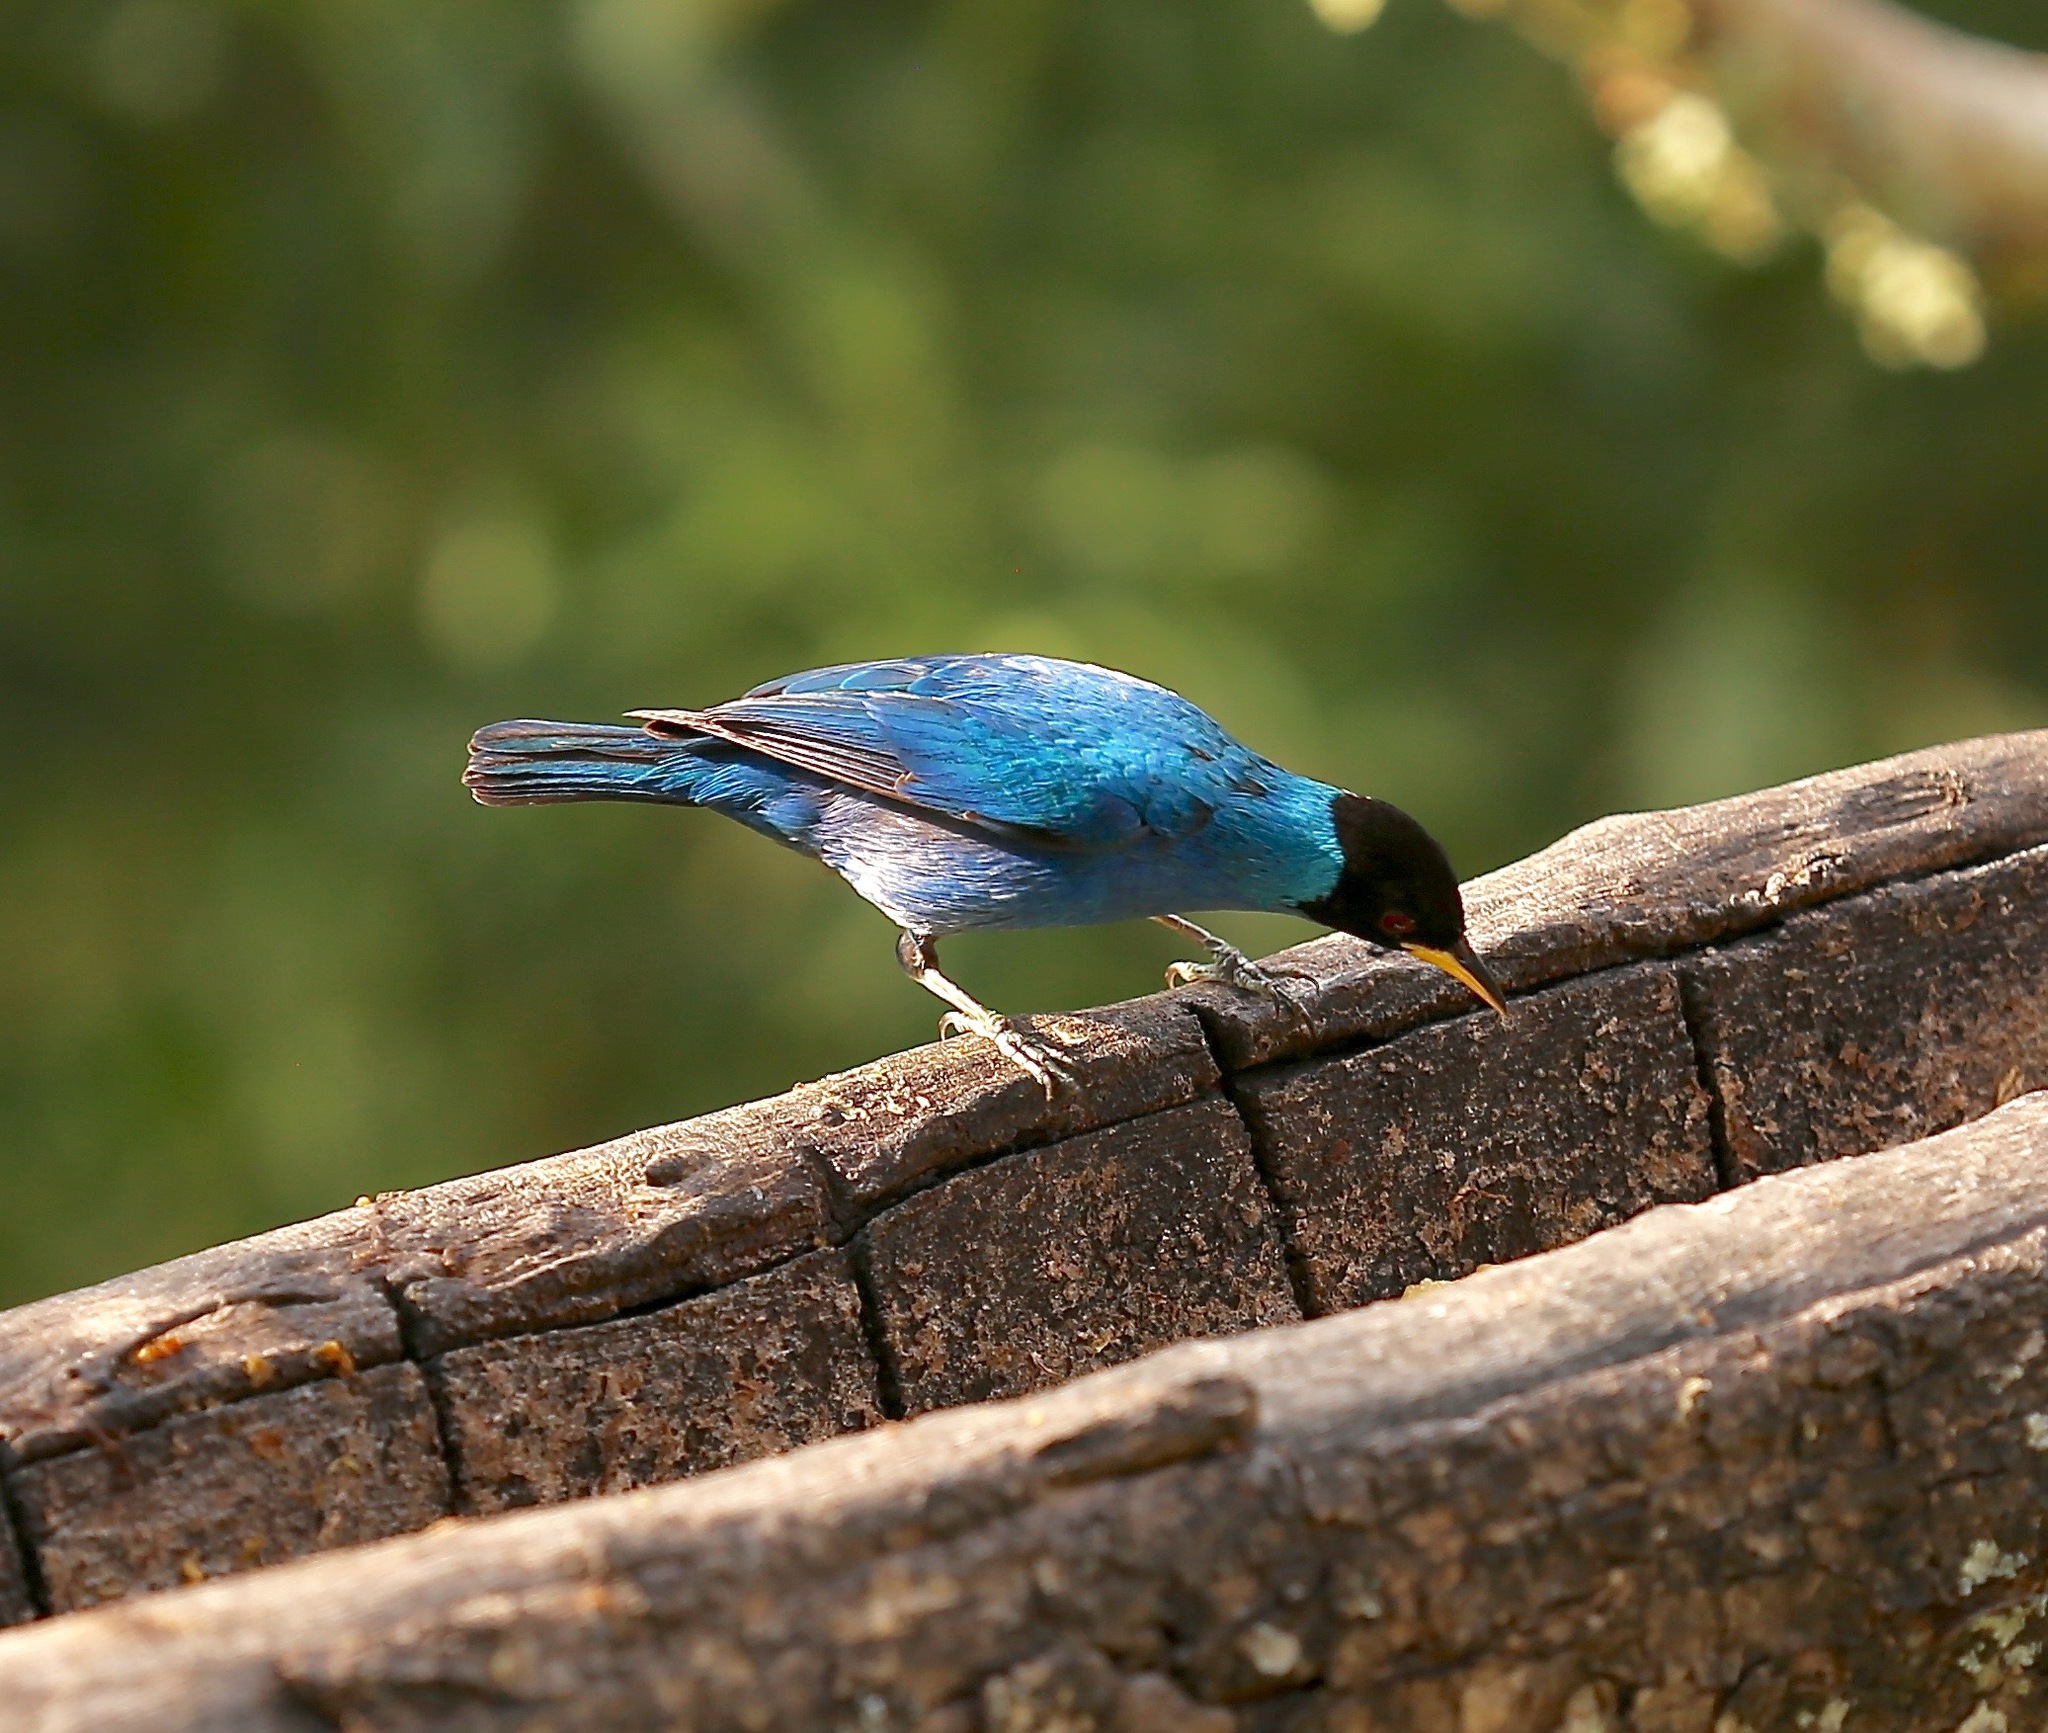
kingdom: Animalia
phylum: Chordata
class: Aves
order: Passeriformes
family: Thraupidae
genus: Chlorophanes
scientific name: Chlorophanes spiza
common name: Green honeycreeper
